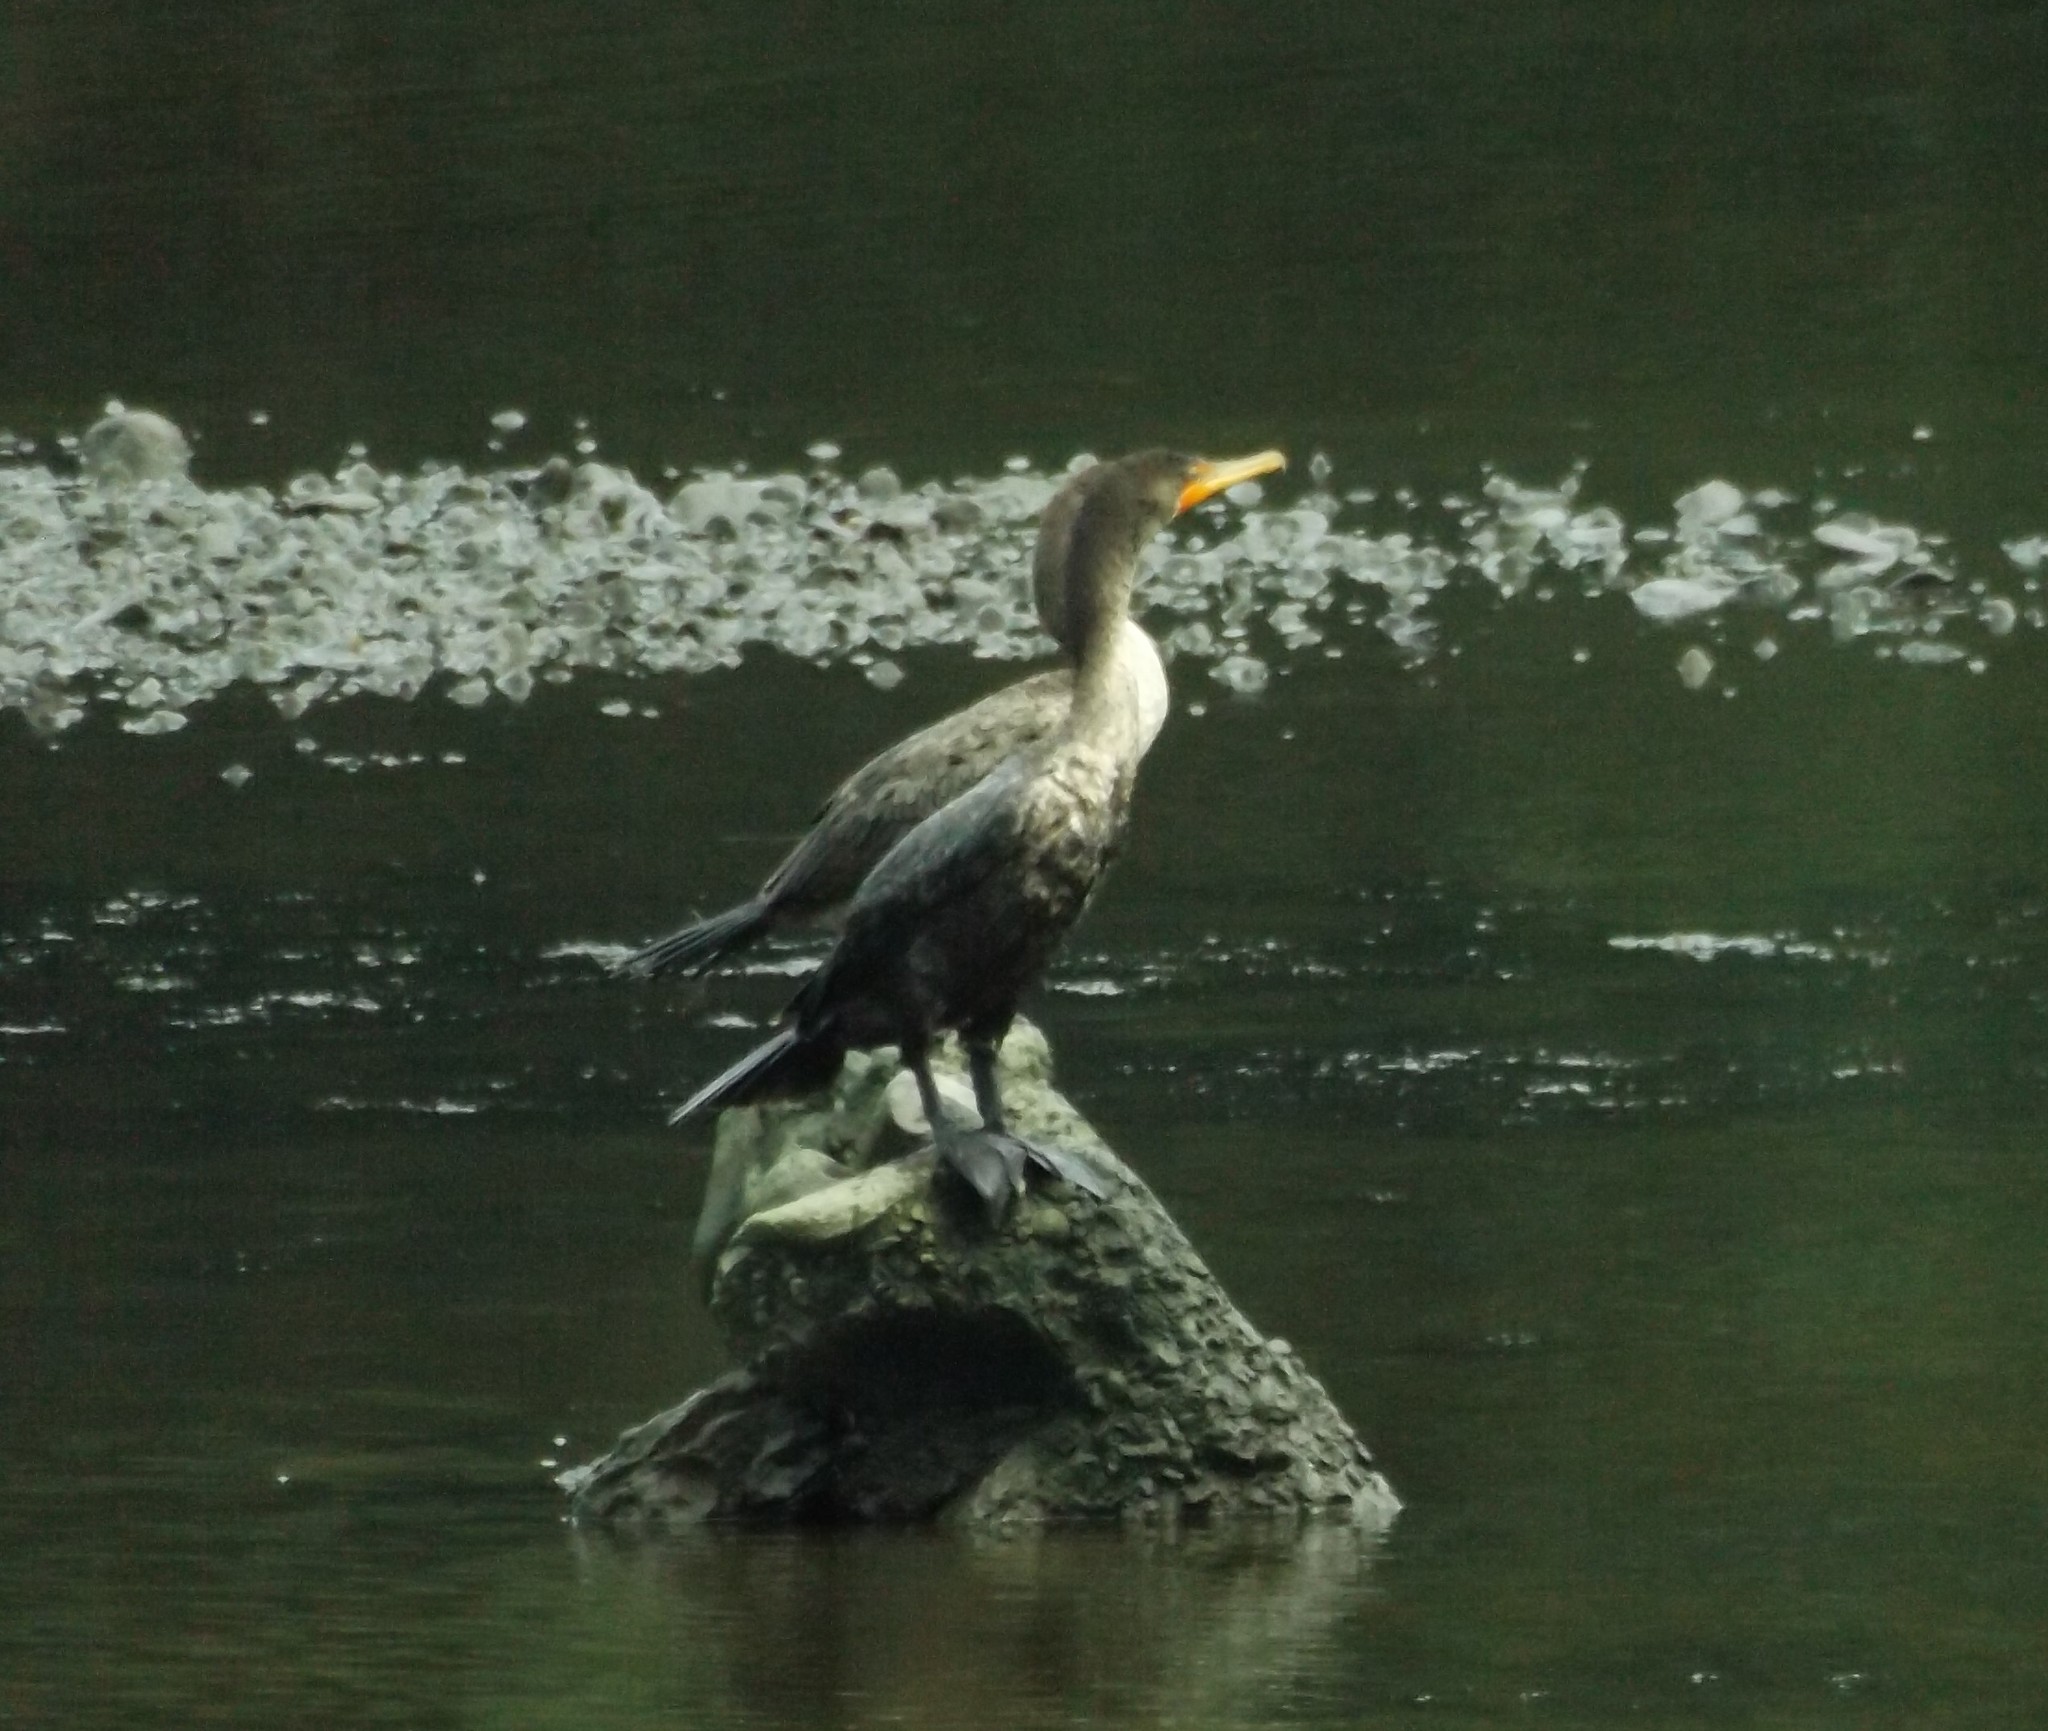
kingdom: Animalia
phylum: Chordata
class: Aves
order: Suliformes
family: Phalacrocoracidae
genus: Phalacrocorax
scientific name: Phalacrocorax auritus
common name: Double-crested cormorant
